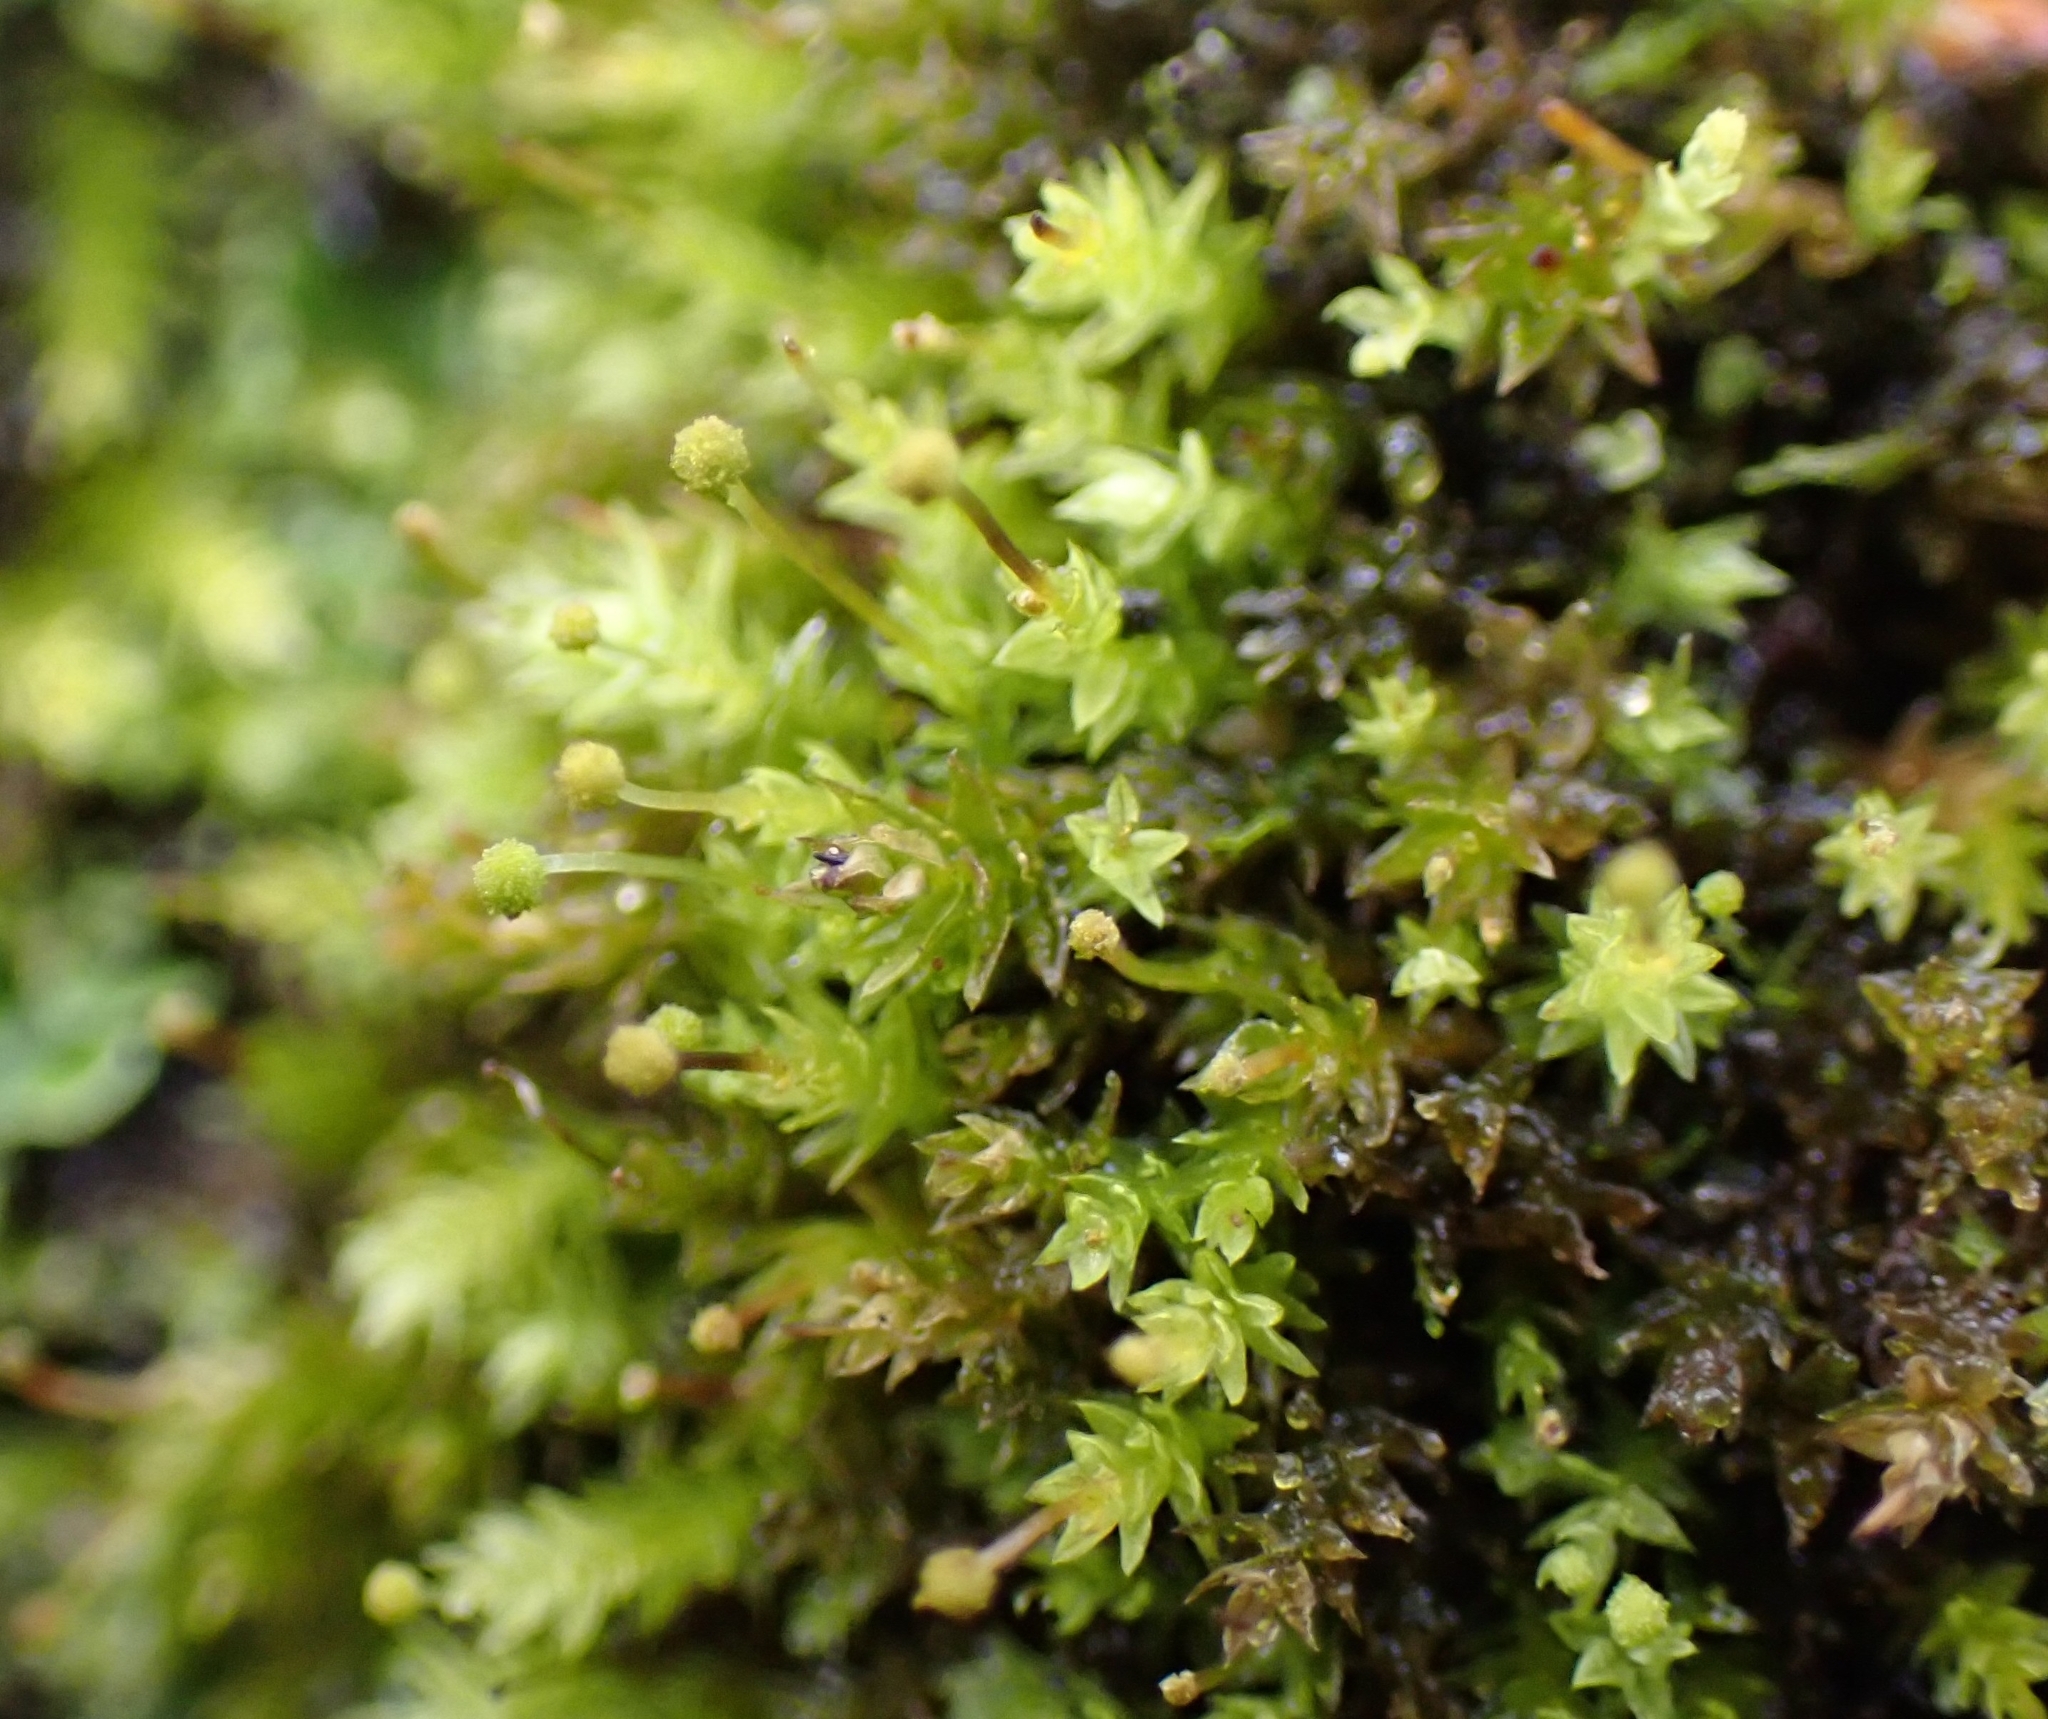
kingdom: Plantae
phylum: Bryophyta
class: Bryopsida
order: Aulacomniales
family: Aulacomniaceae
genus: Aulacomnium
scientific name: Aulacomnium androgynum
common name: Little groove moss
